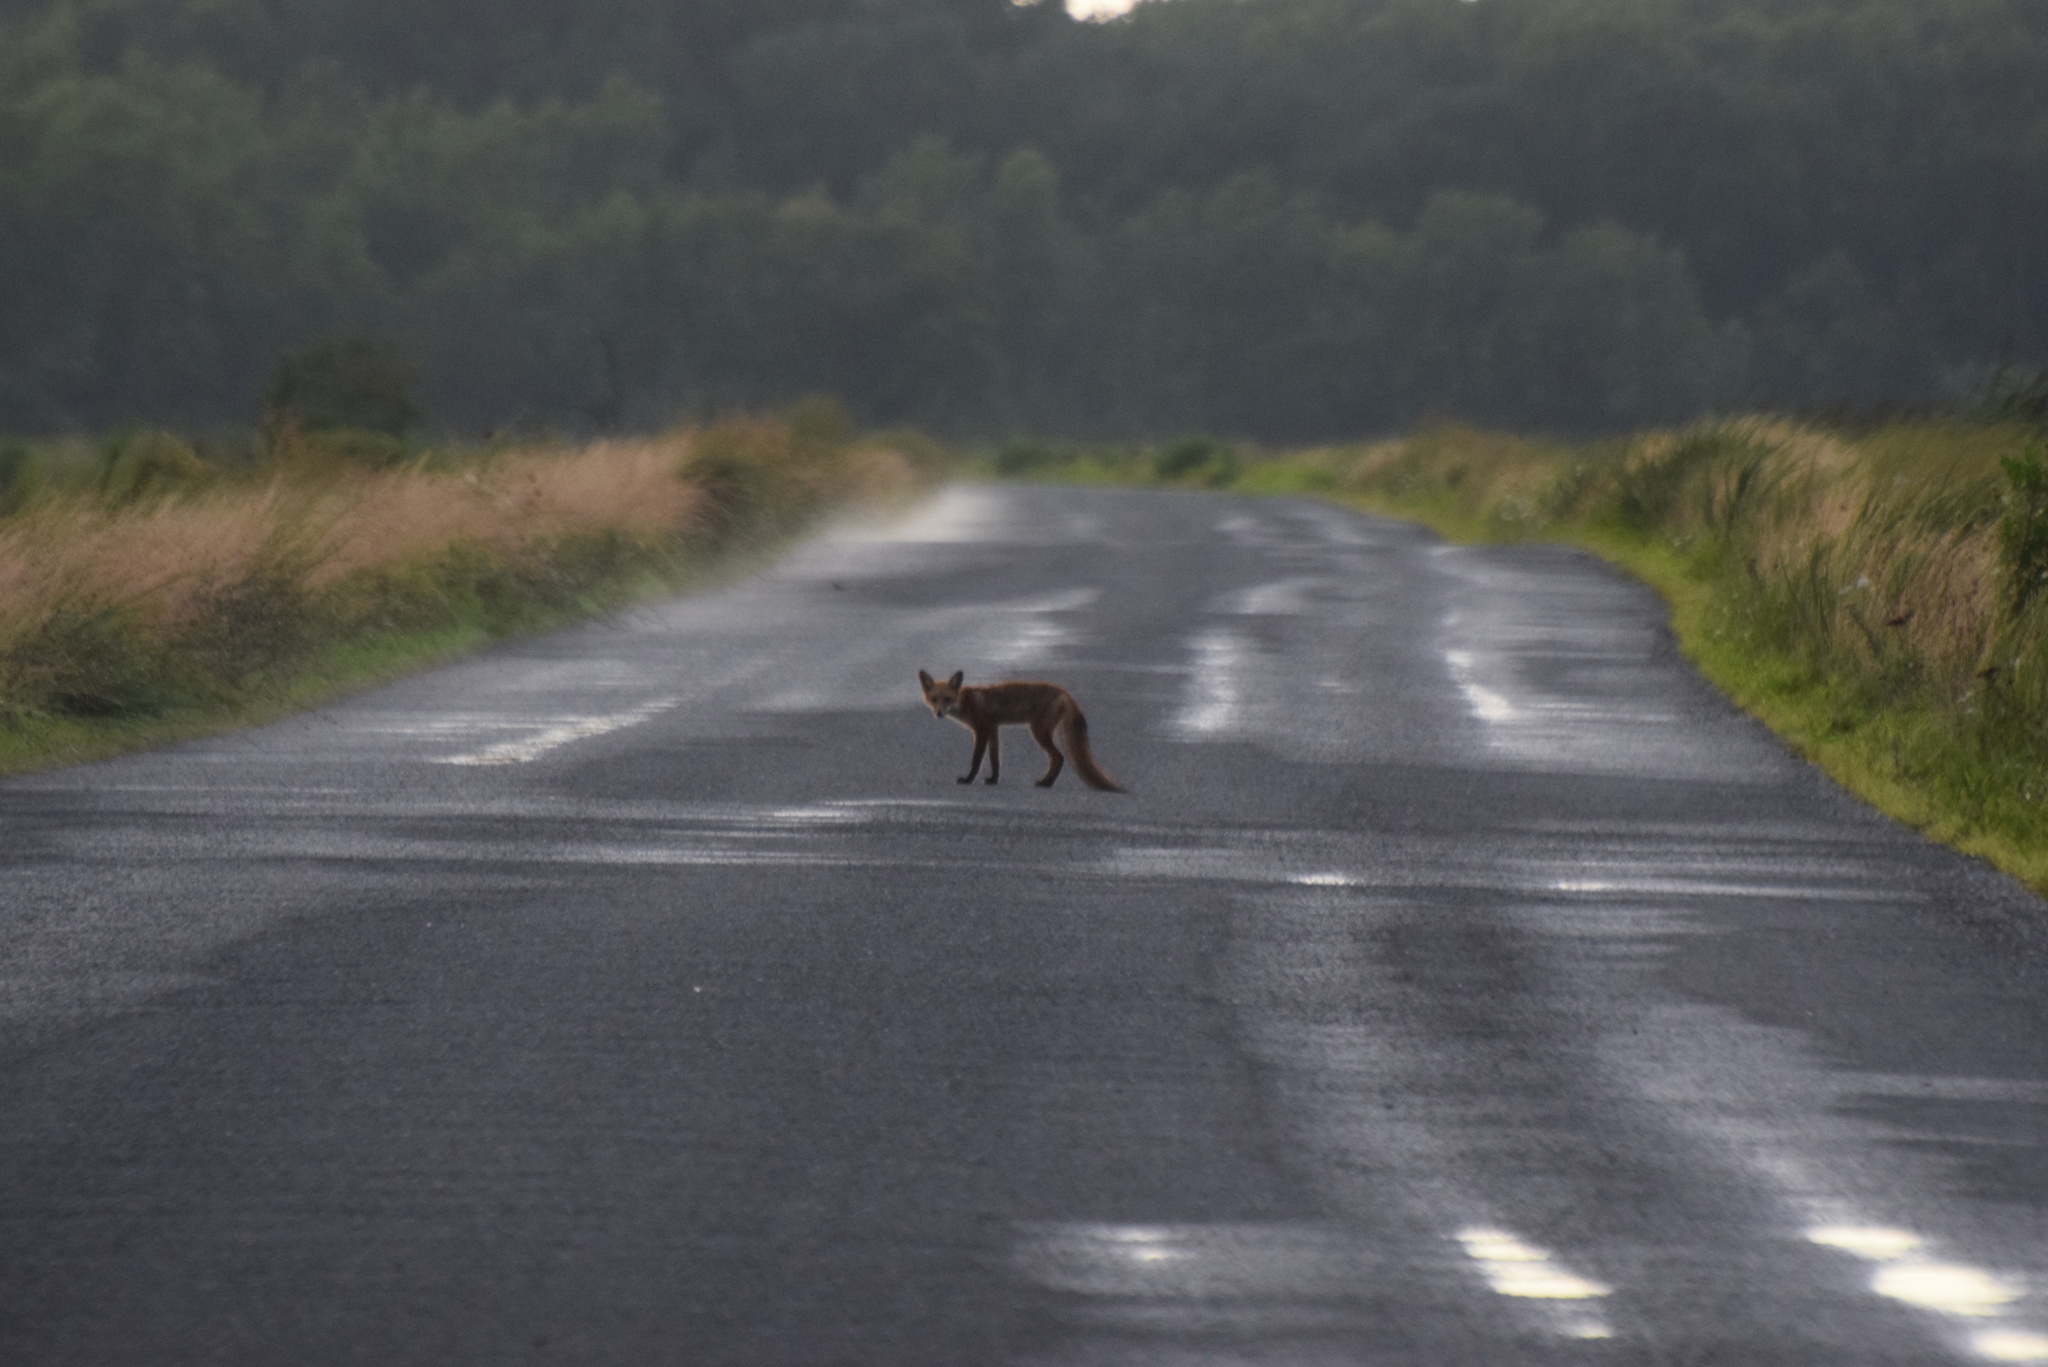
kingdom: Animalia
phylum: Chordata
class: Mammalia
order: Carnivora
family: Canidae
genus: Vulpes
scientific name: Vulpes vulpes
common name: Red fox
